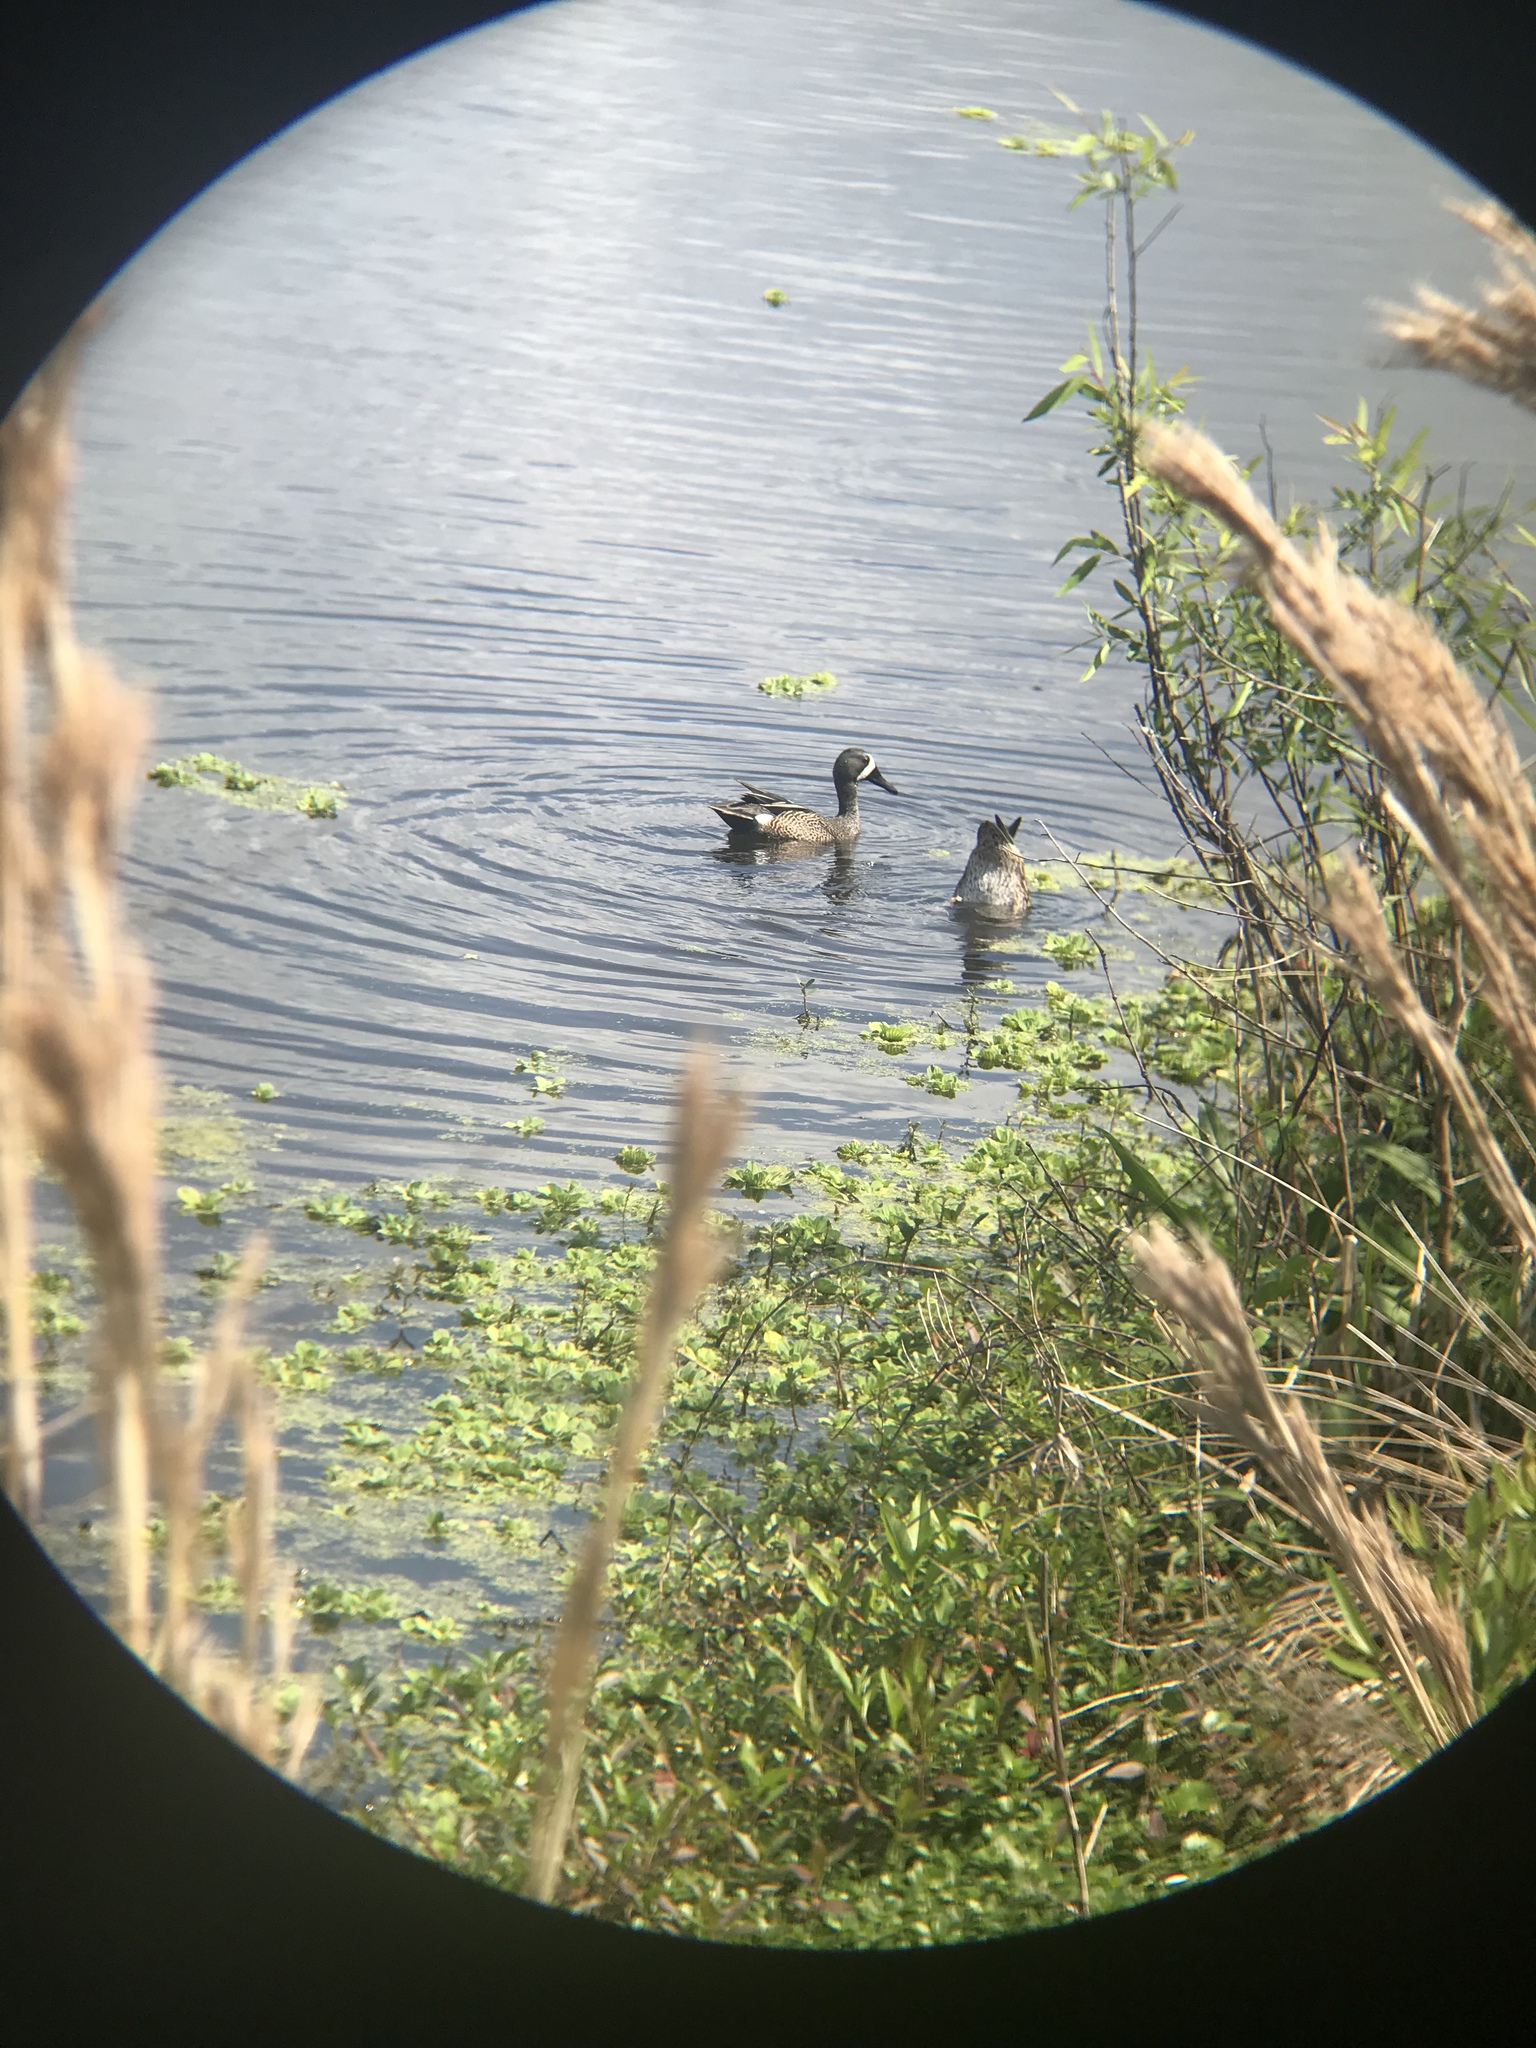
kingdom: Animalia
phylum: Chordata
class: Aves
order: Anseriformes
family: Anatidae
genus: Spatula
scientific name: Spatula discors
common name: Blue-winged teal
